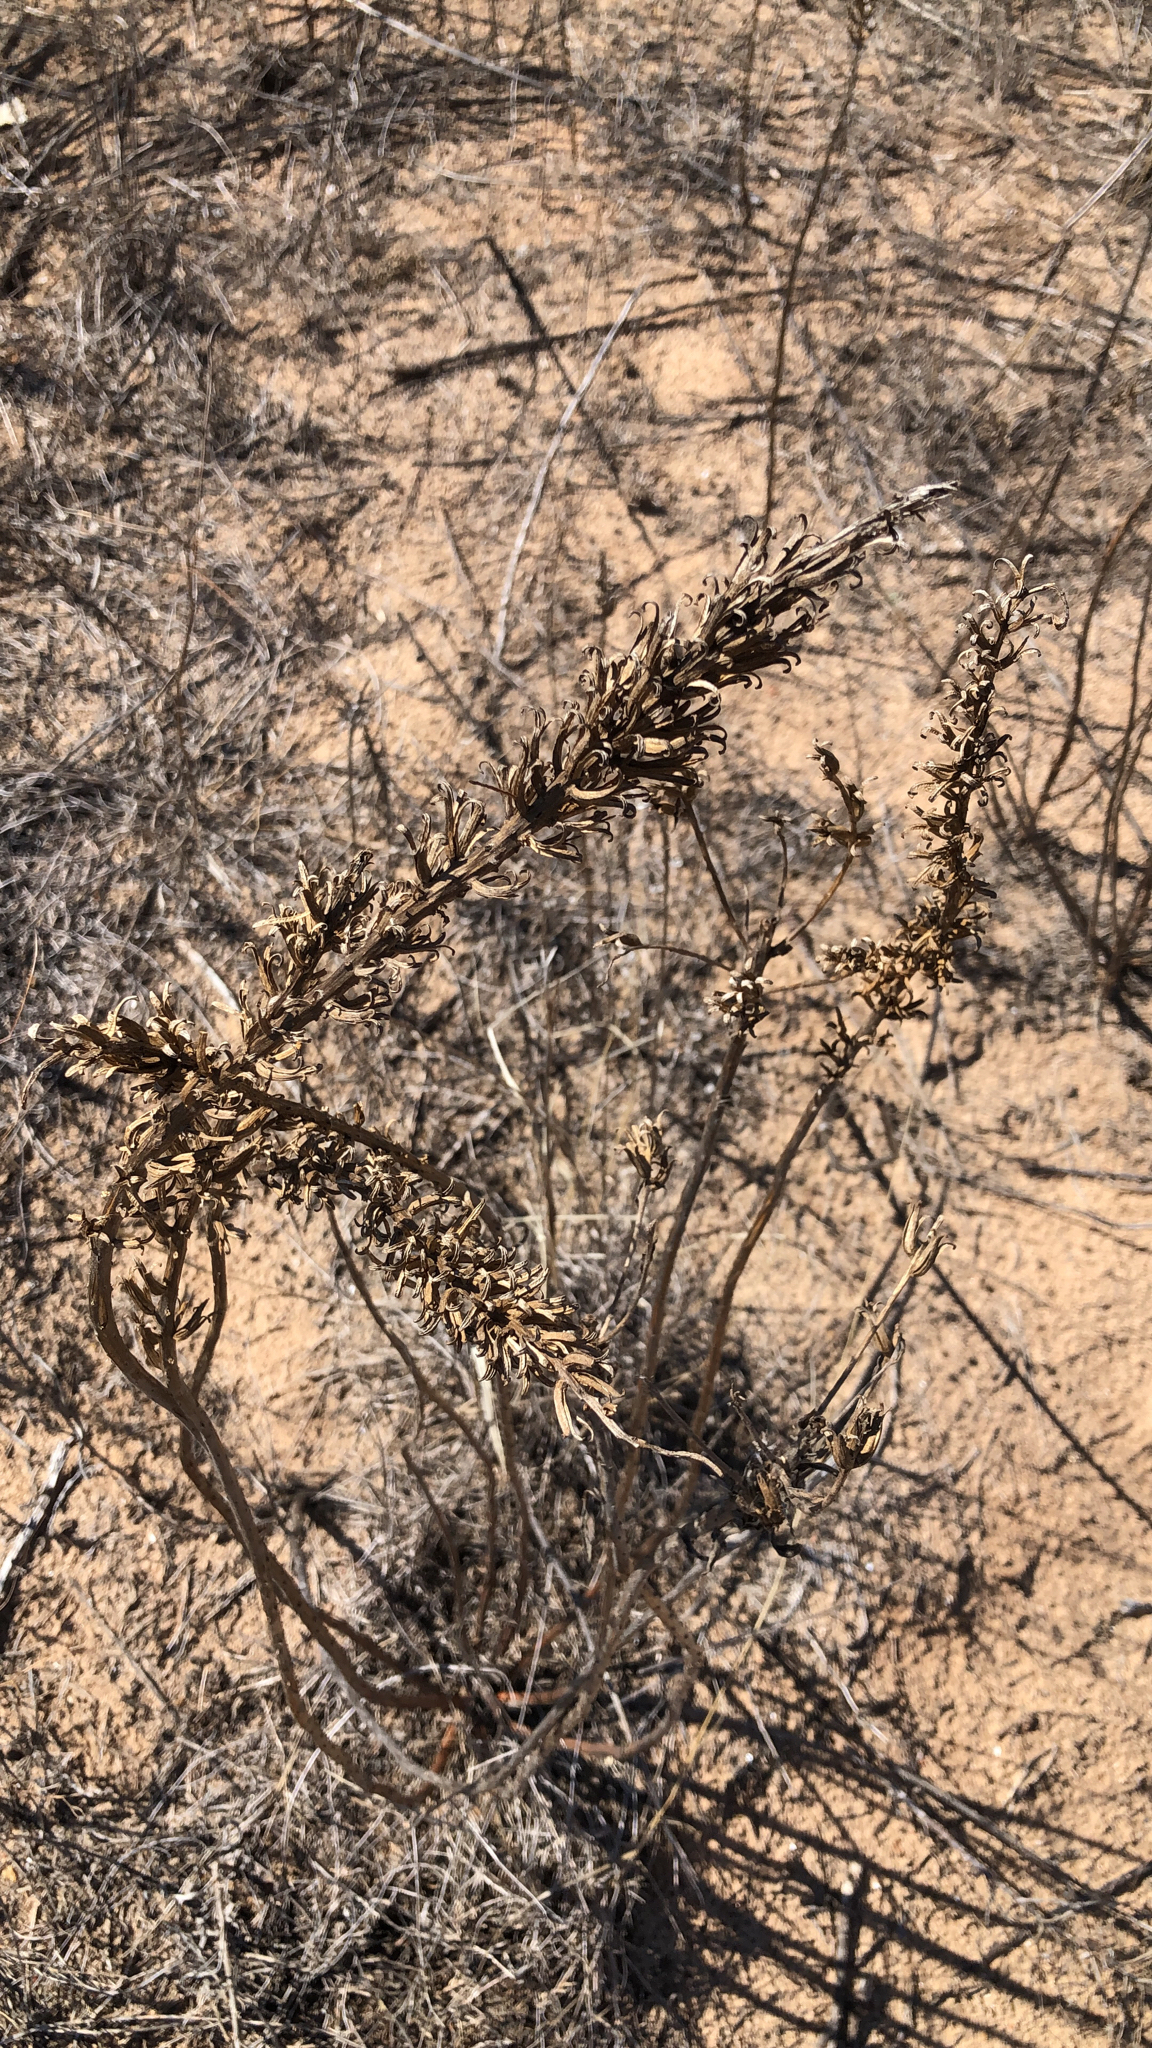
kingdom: Plantae
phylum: Tracheophyta
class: Magnoliopsida
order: Myrtales
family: Onagraceae
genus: Oenothera
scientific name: Oenothera rhombipetala
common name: Four-points evening-primrose
